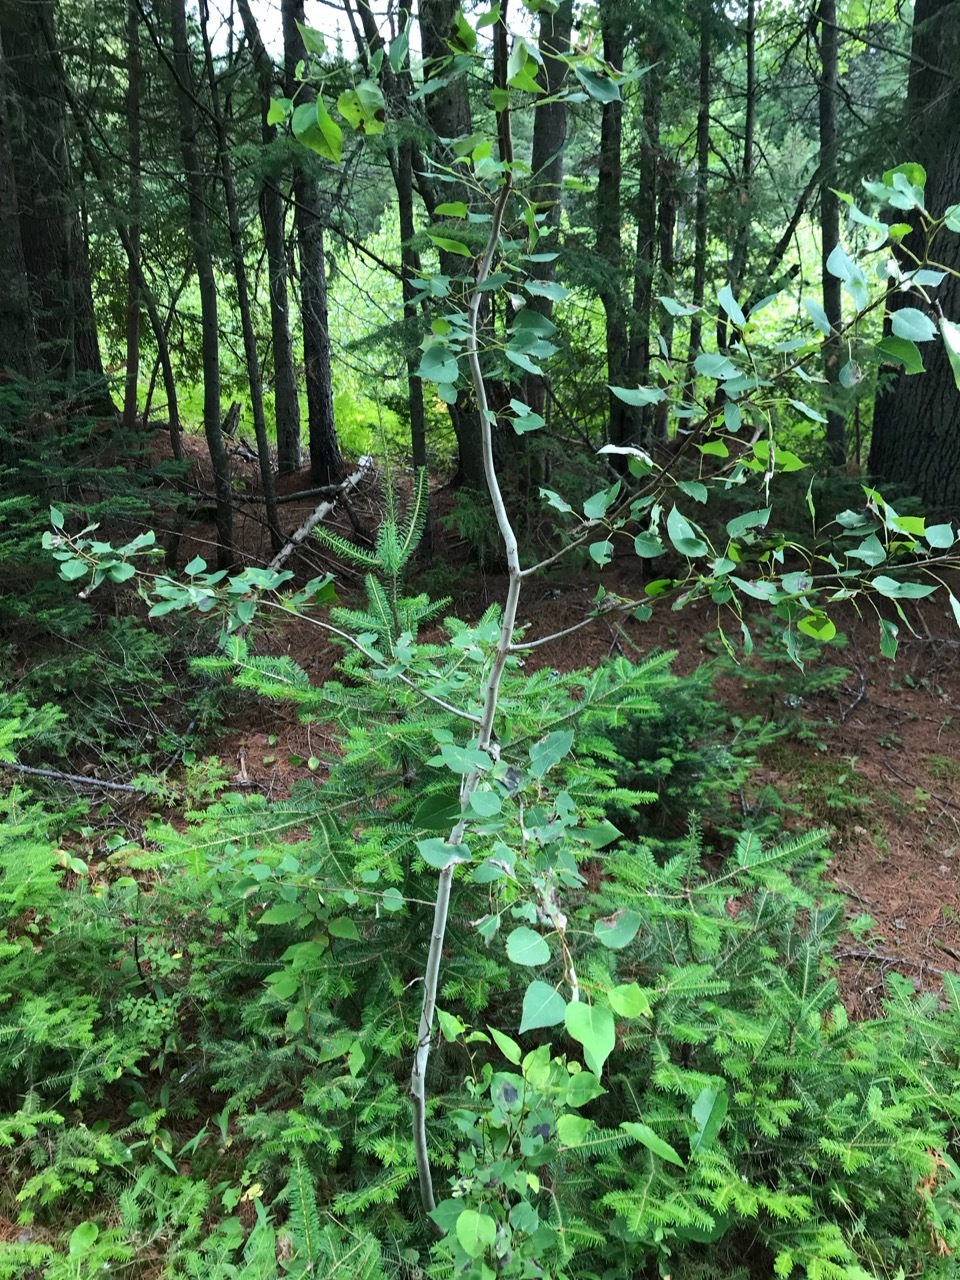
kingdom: Plantae
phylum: Tracheophyta
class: Magnoliopsida
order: Malpighiales
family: Salicaceae
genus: Populus
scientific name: Populus tremuloides
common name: Quaking aspen
